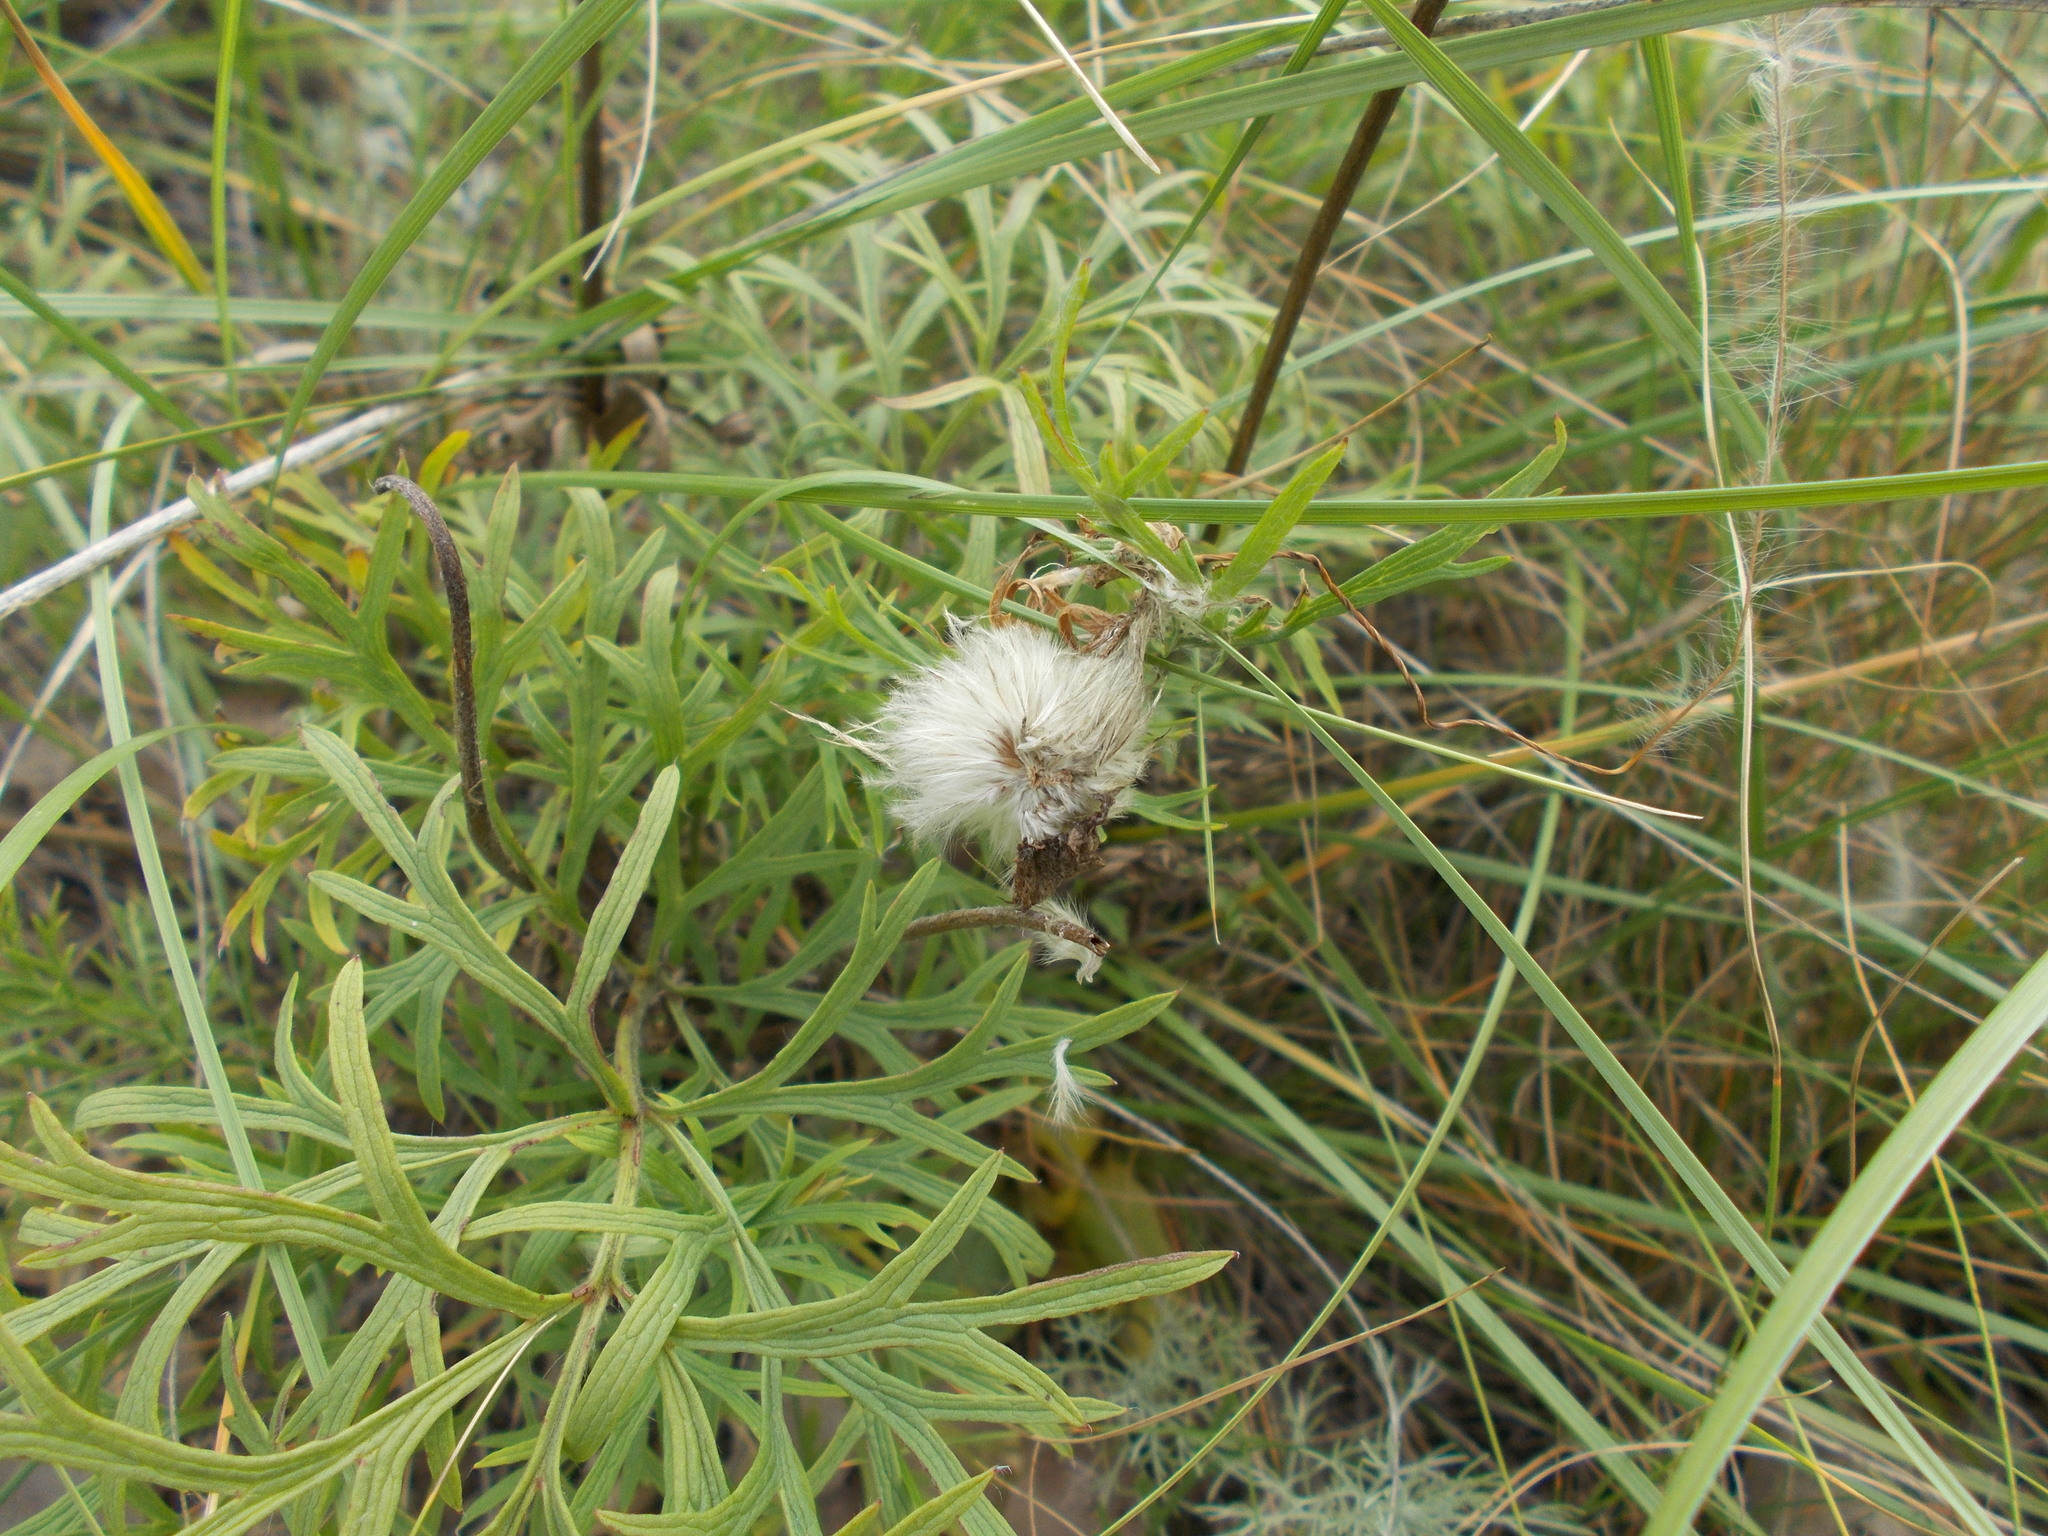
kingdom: Plantae
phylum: Tracheophyta
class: Magnoliopsida
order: Ranunculales
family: Ranunculaceae
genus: Pulsatilla
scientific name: Pulsatilla pratensis
